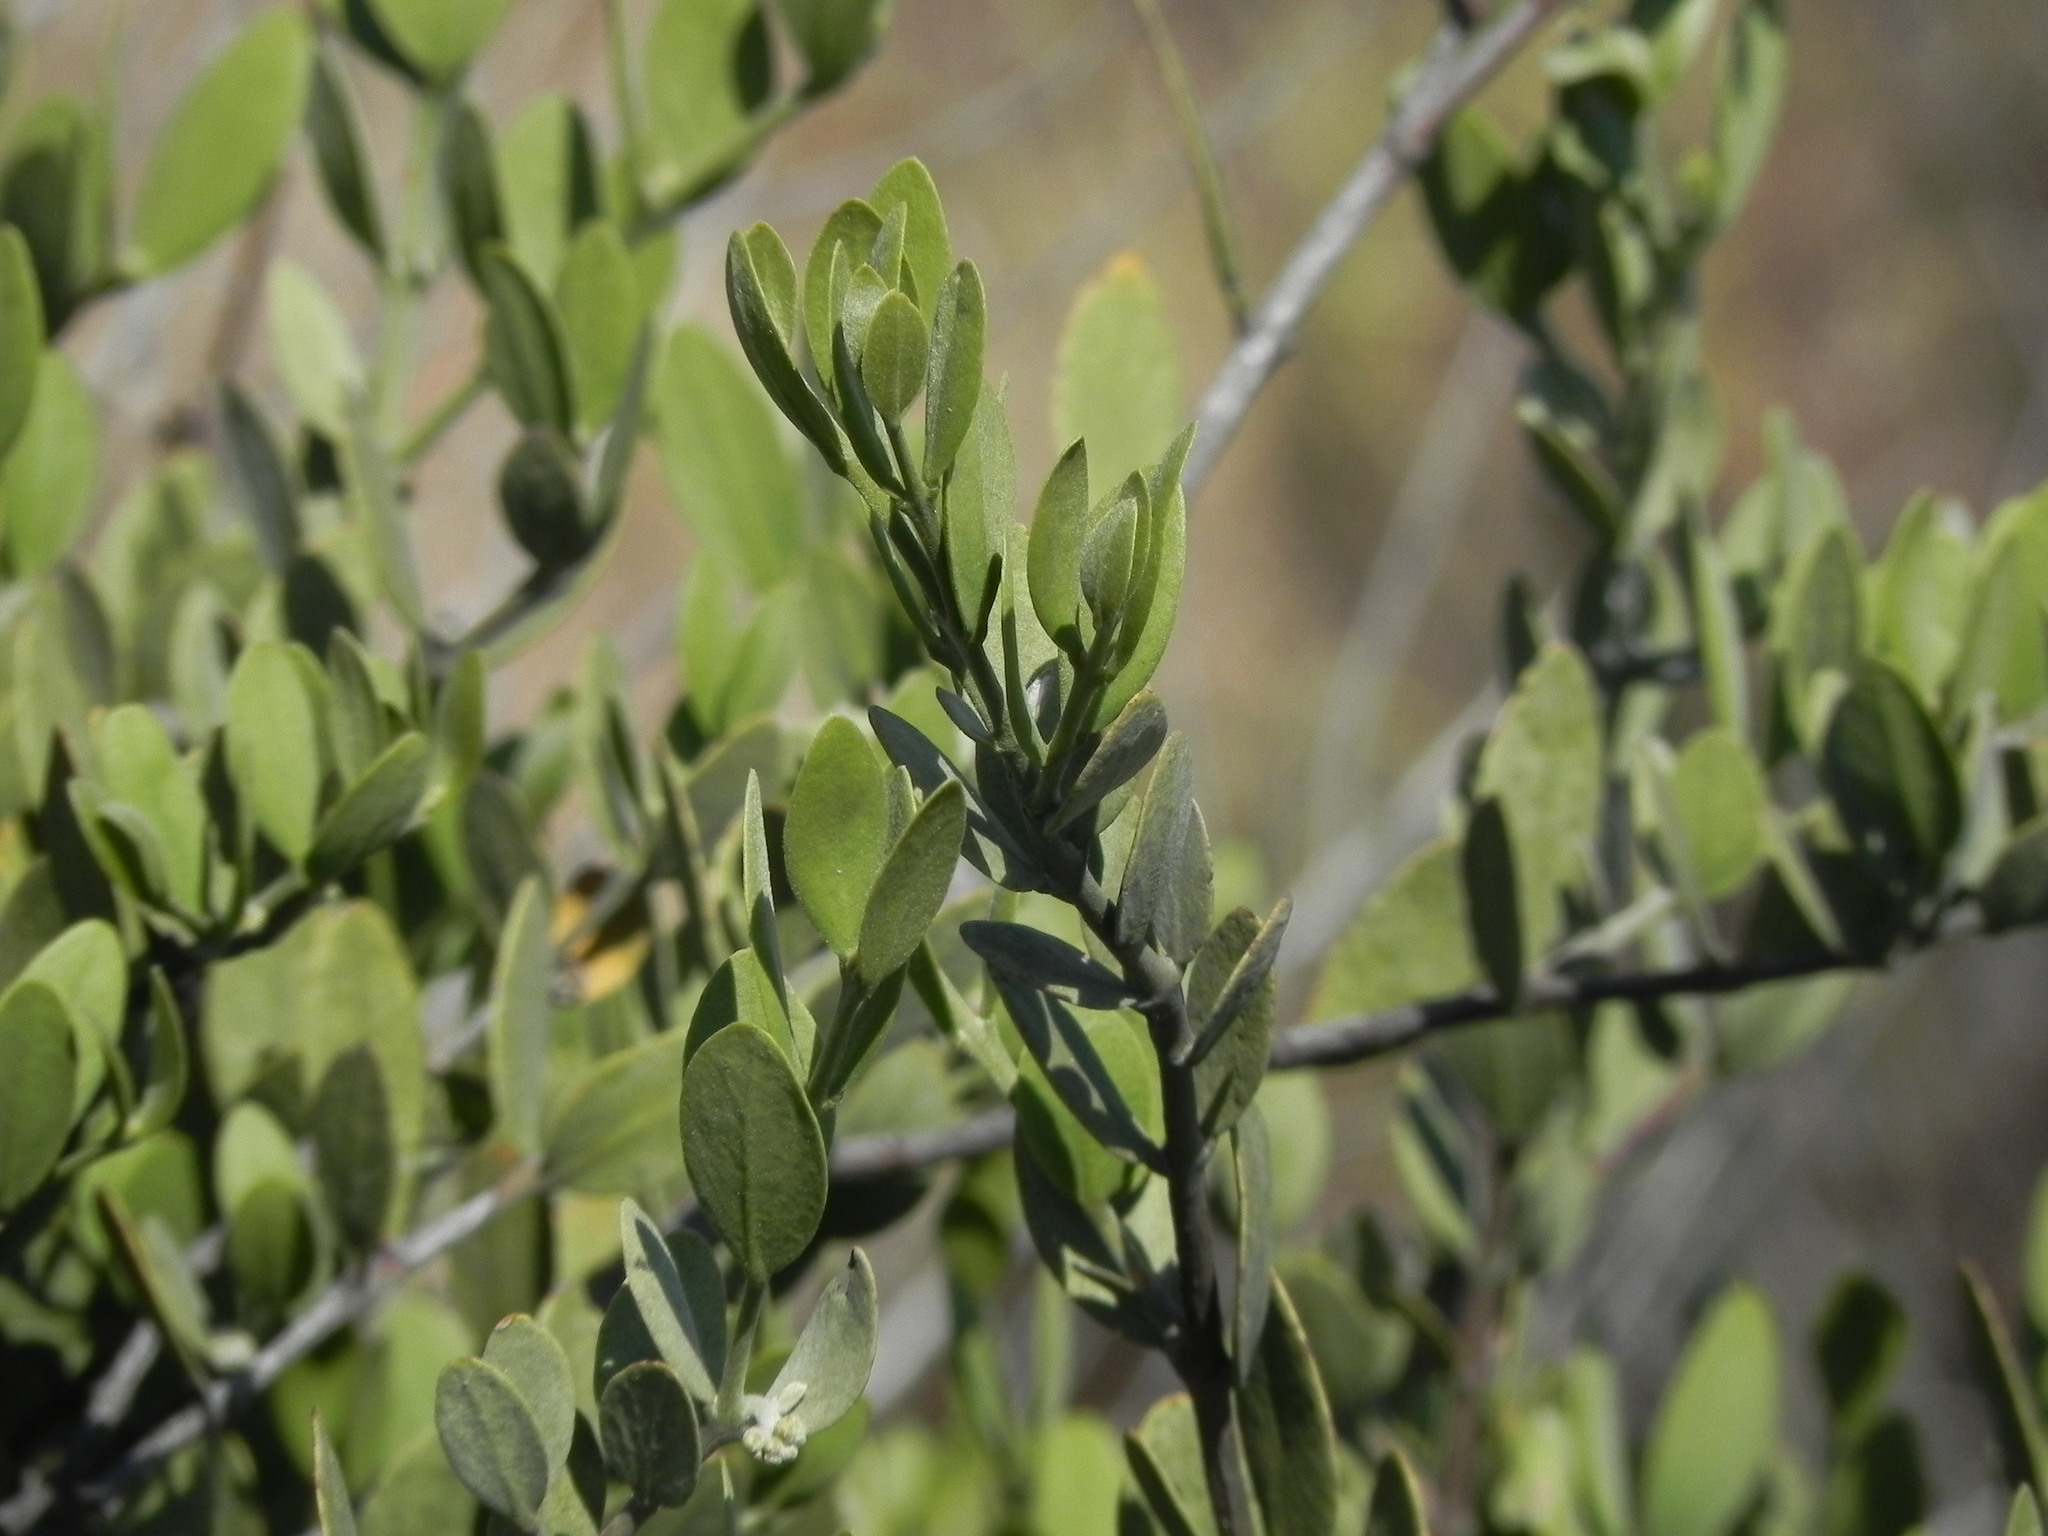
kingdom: Plantae
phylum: Tracheophyta
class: Magnoliopsida
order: Caryophyllales
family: Simmondsiaceae
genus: Simmondsia
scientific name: Simmondsia chinensis
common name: Jojoba
